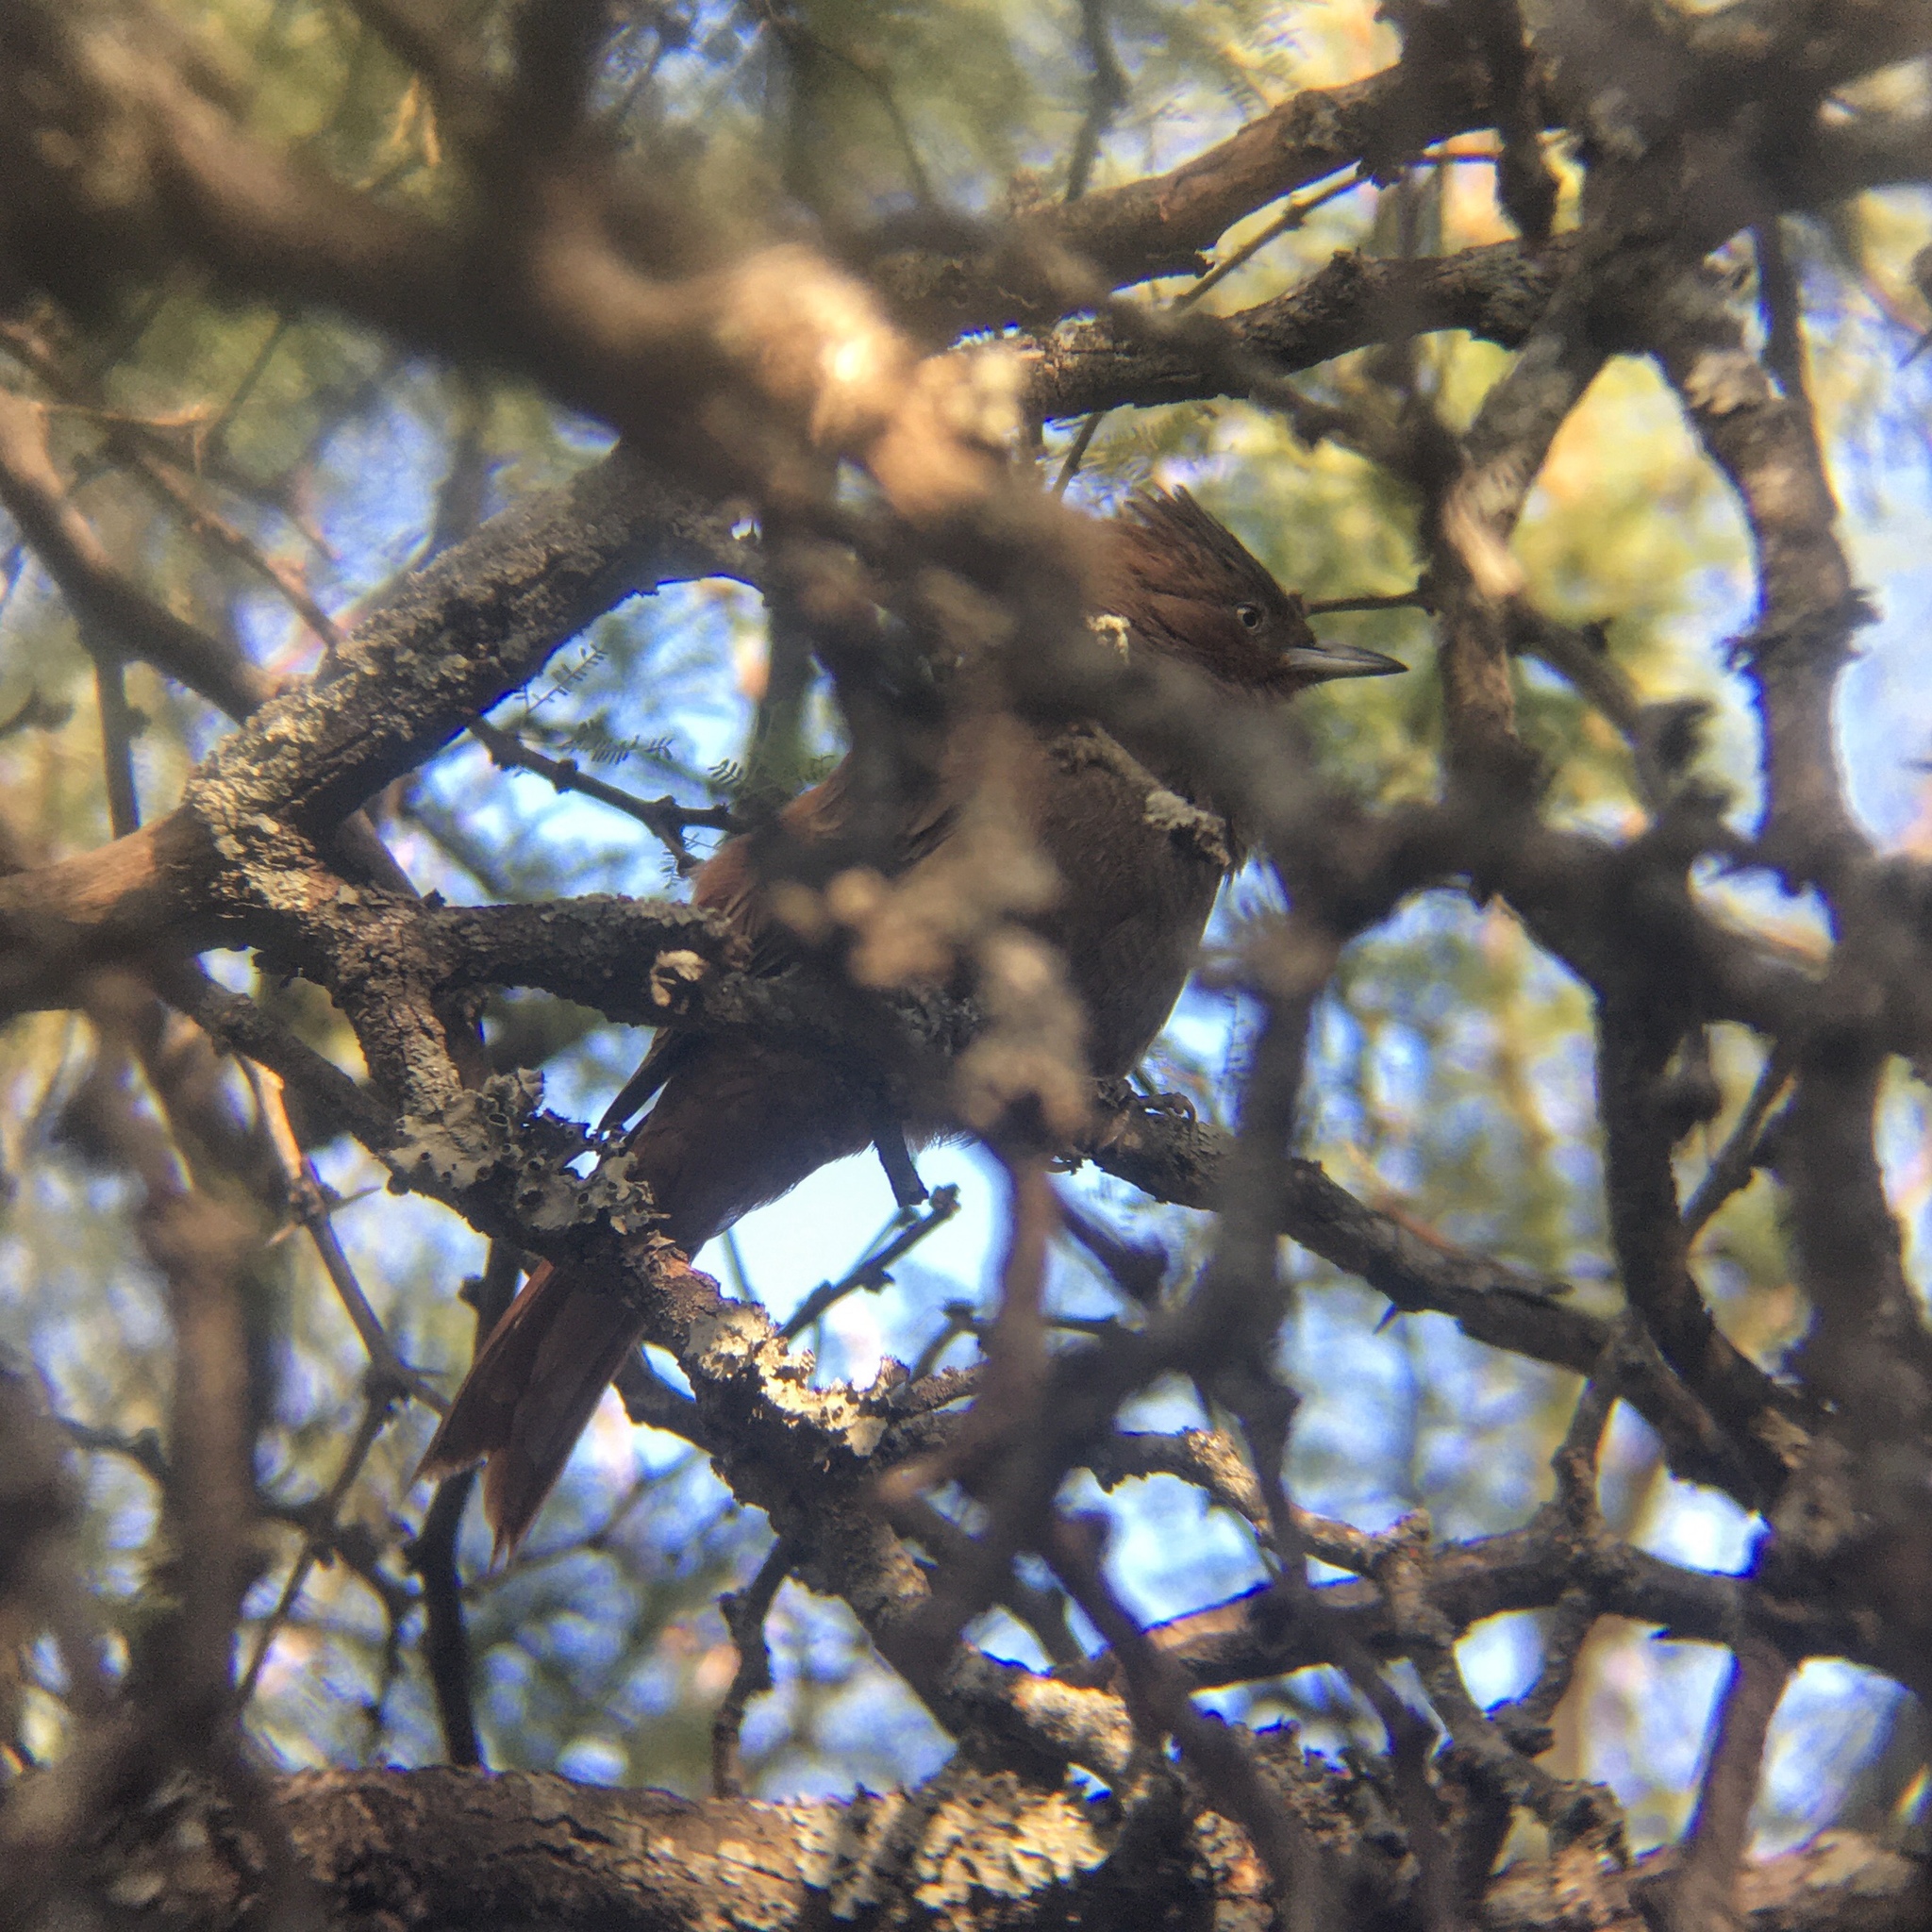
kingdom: Animalia
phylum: Chordata
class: Aves
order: Passeriformes
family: Furnariidae
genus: Pseudoseisura
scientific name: Pseudoseisura lophotes
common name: Brown cacholote
